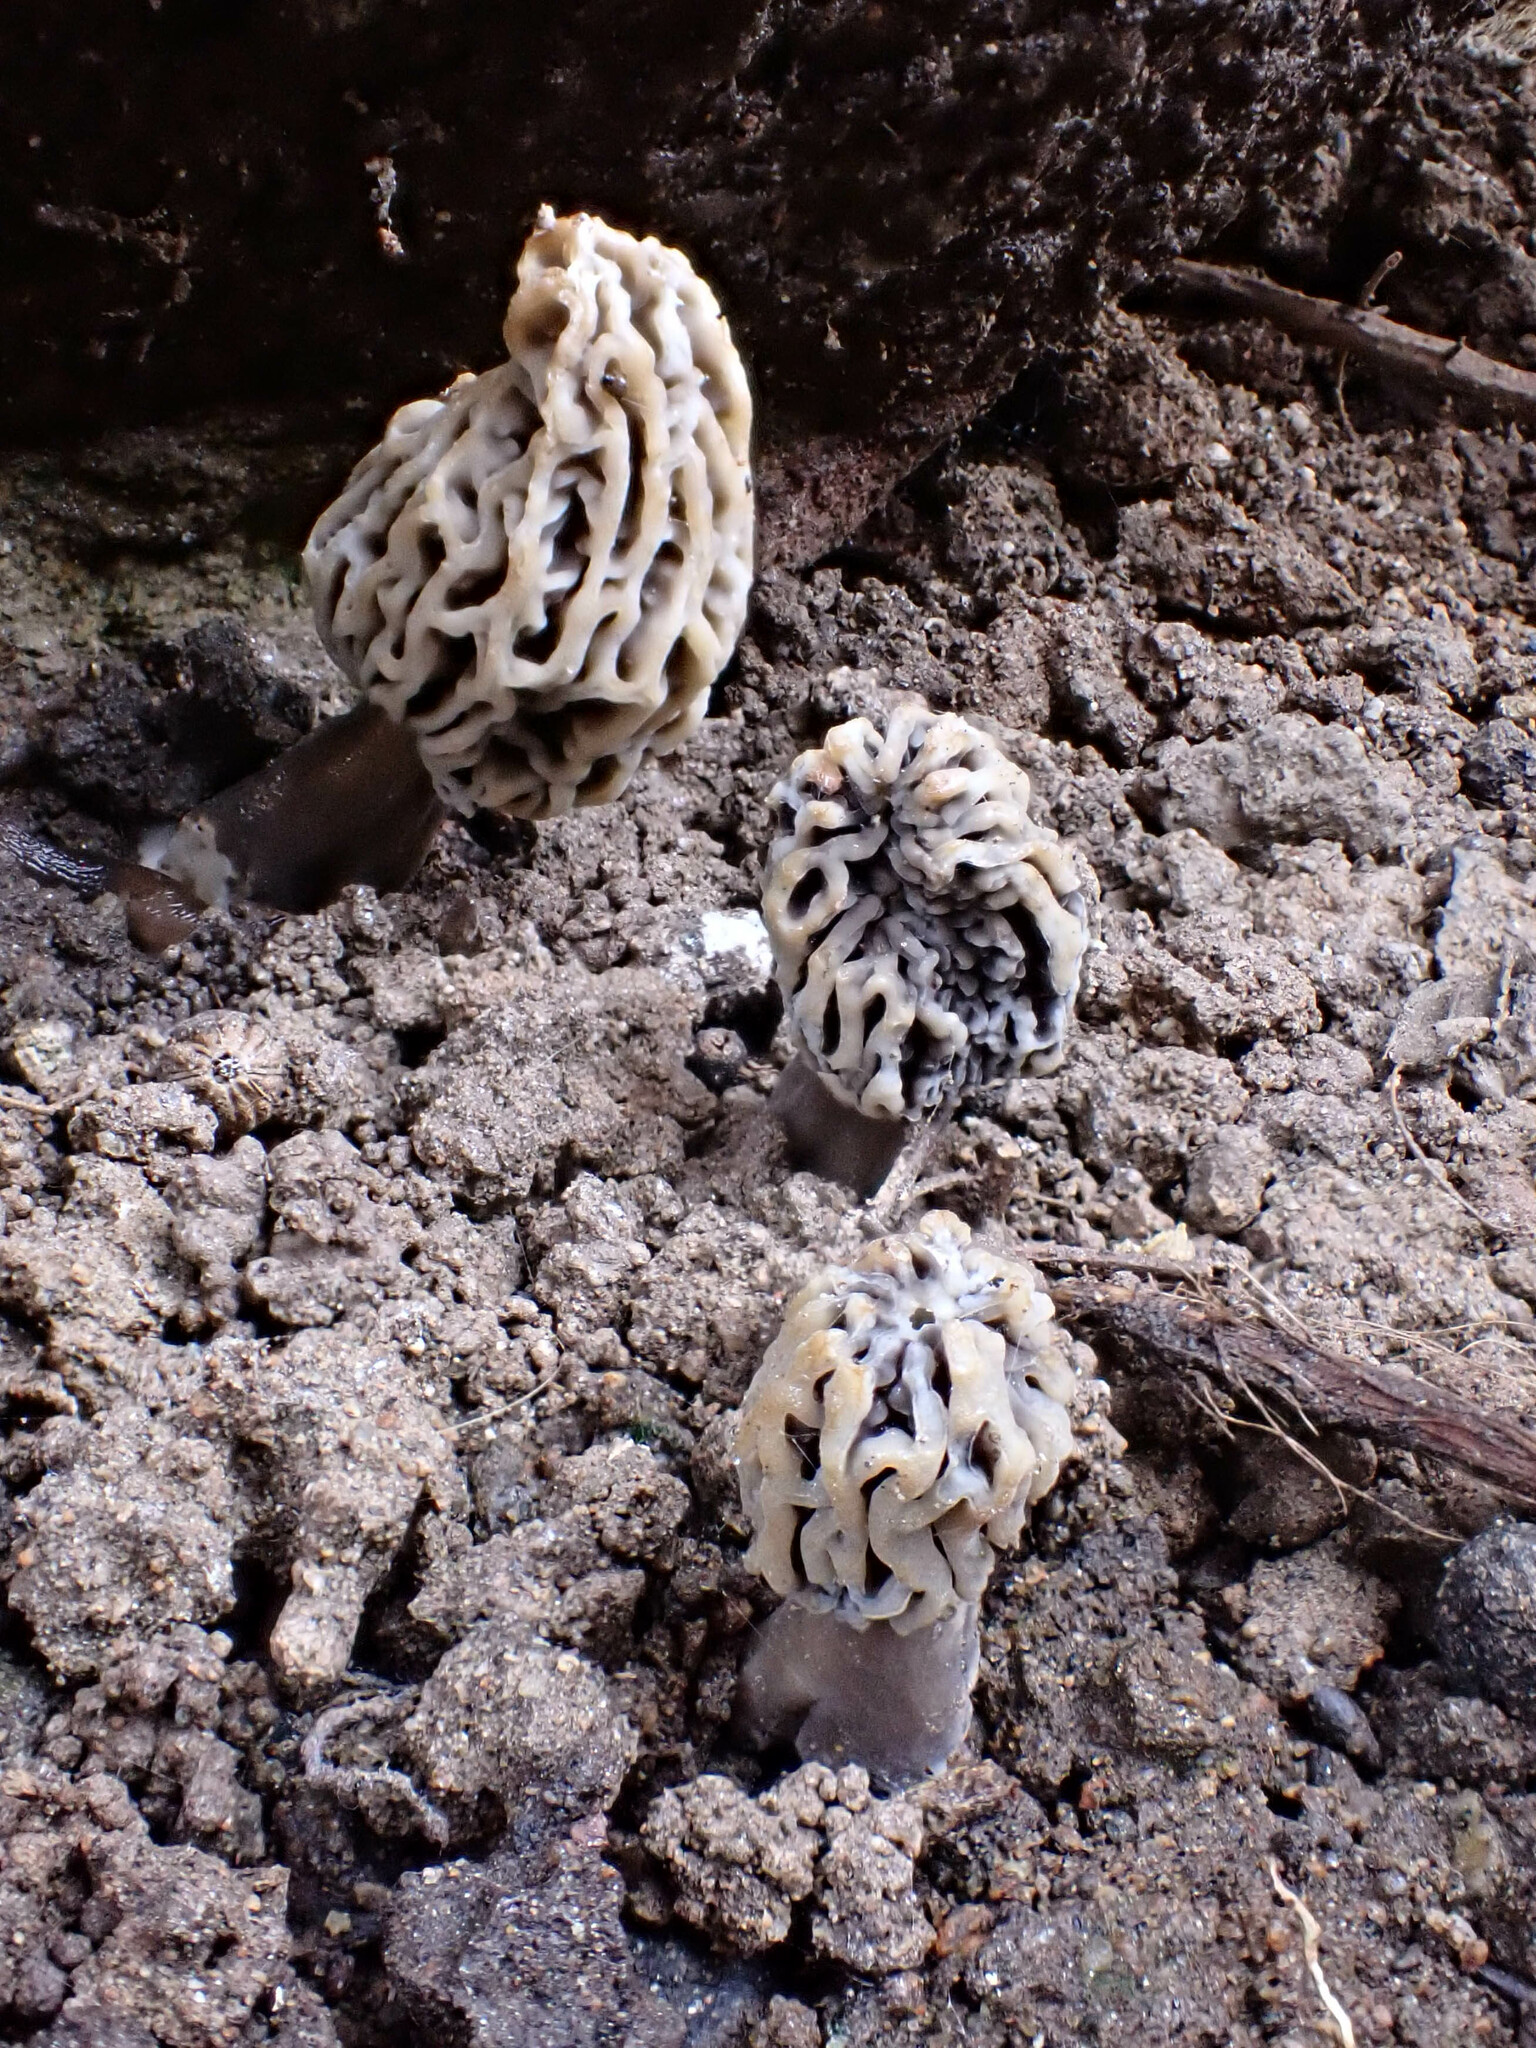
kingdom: Fungi
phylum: Ascomycota
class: Pezizomycetes
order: Pezizales
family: Morchellaceae
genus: Morchella
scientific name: Morchella rufobrunnea
